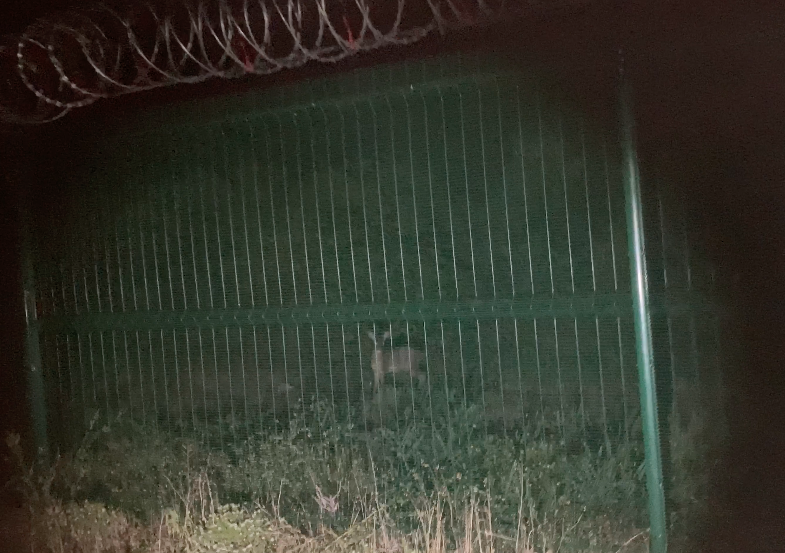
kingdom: Animalia
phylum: Chordata
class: Mammalia
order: Artiodactyla
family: Bovidae
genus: Raphicerus
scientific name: Raphicerus melanotis
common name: Cape grysbok
